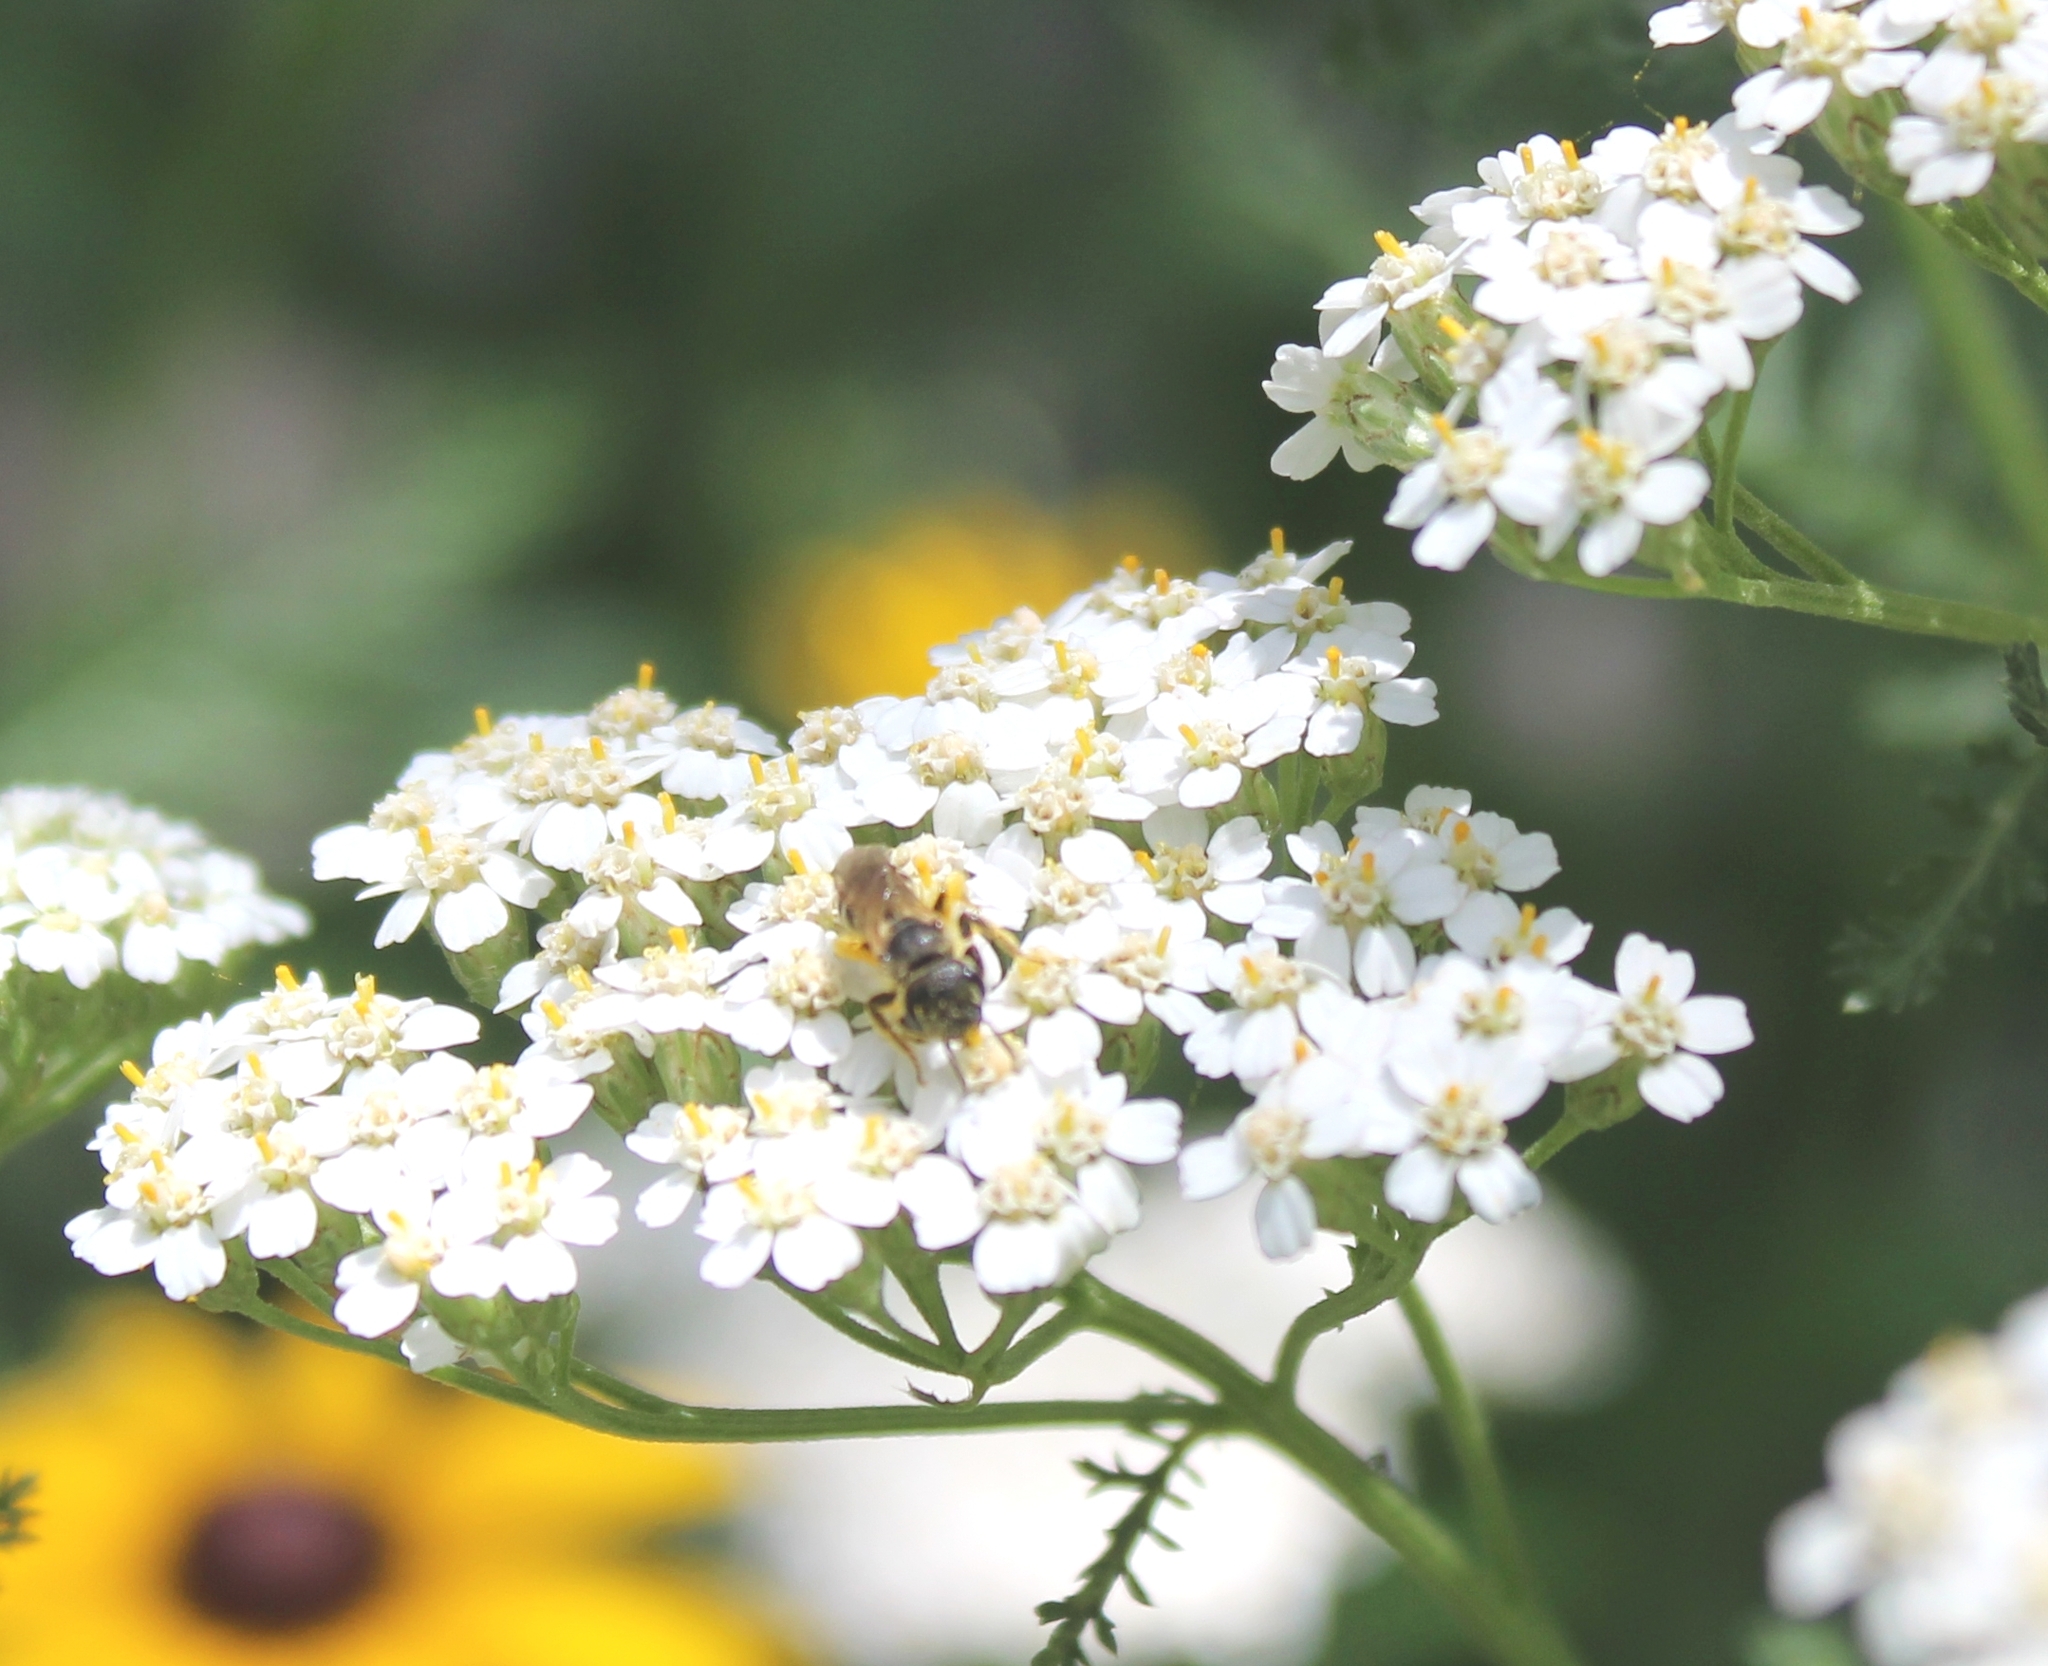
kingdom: Animalia
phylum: Arthropoda
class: Insecta
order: Hymenoptera
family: Halictidae
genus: Halictus
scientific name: Halictus ligatus
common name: Ligated furrow bee
